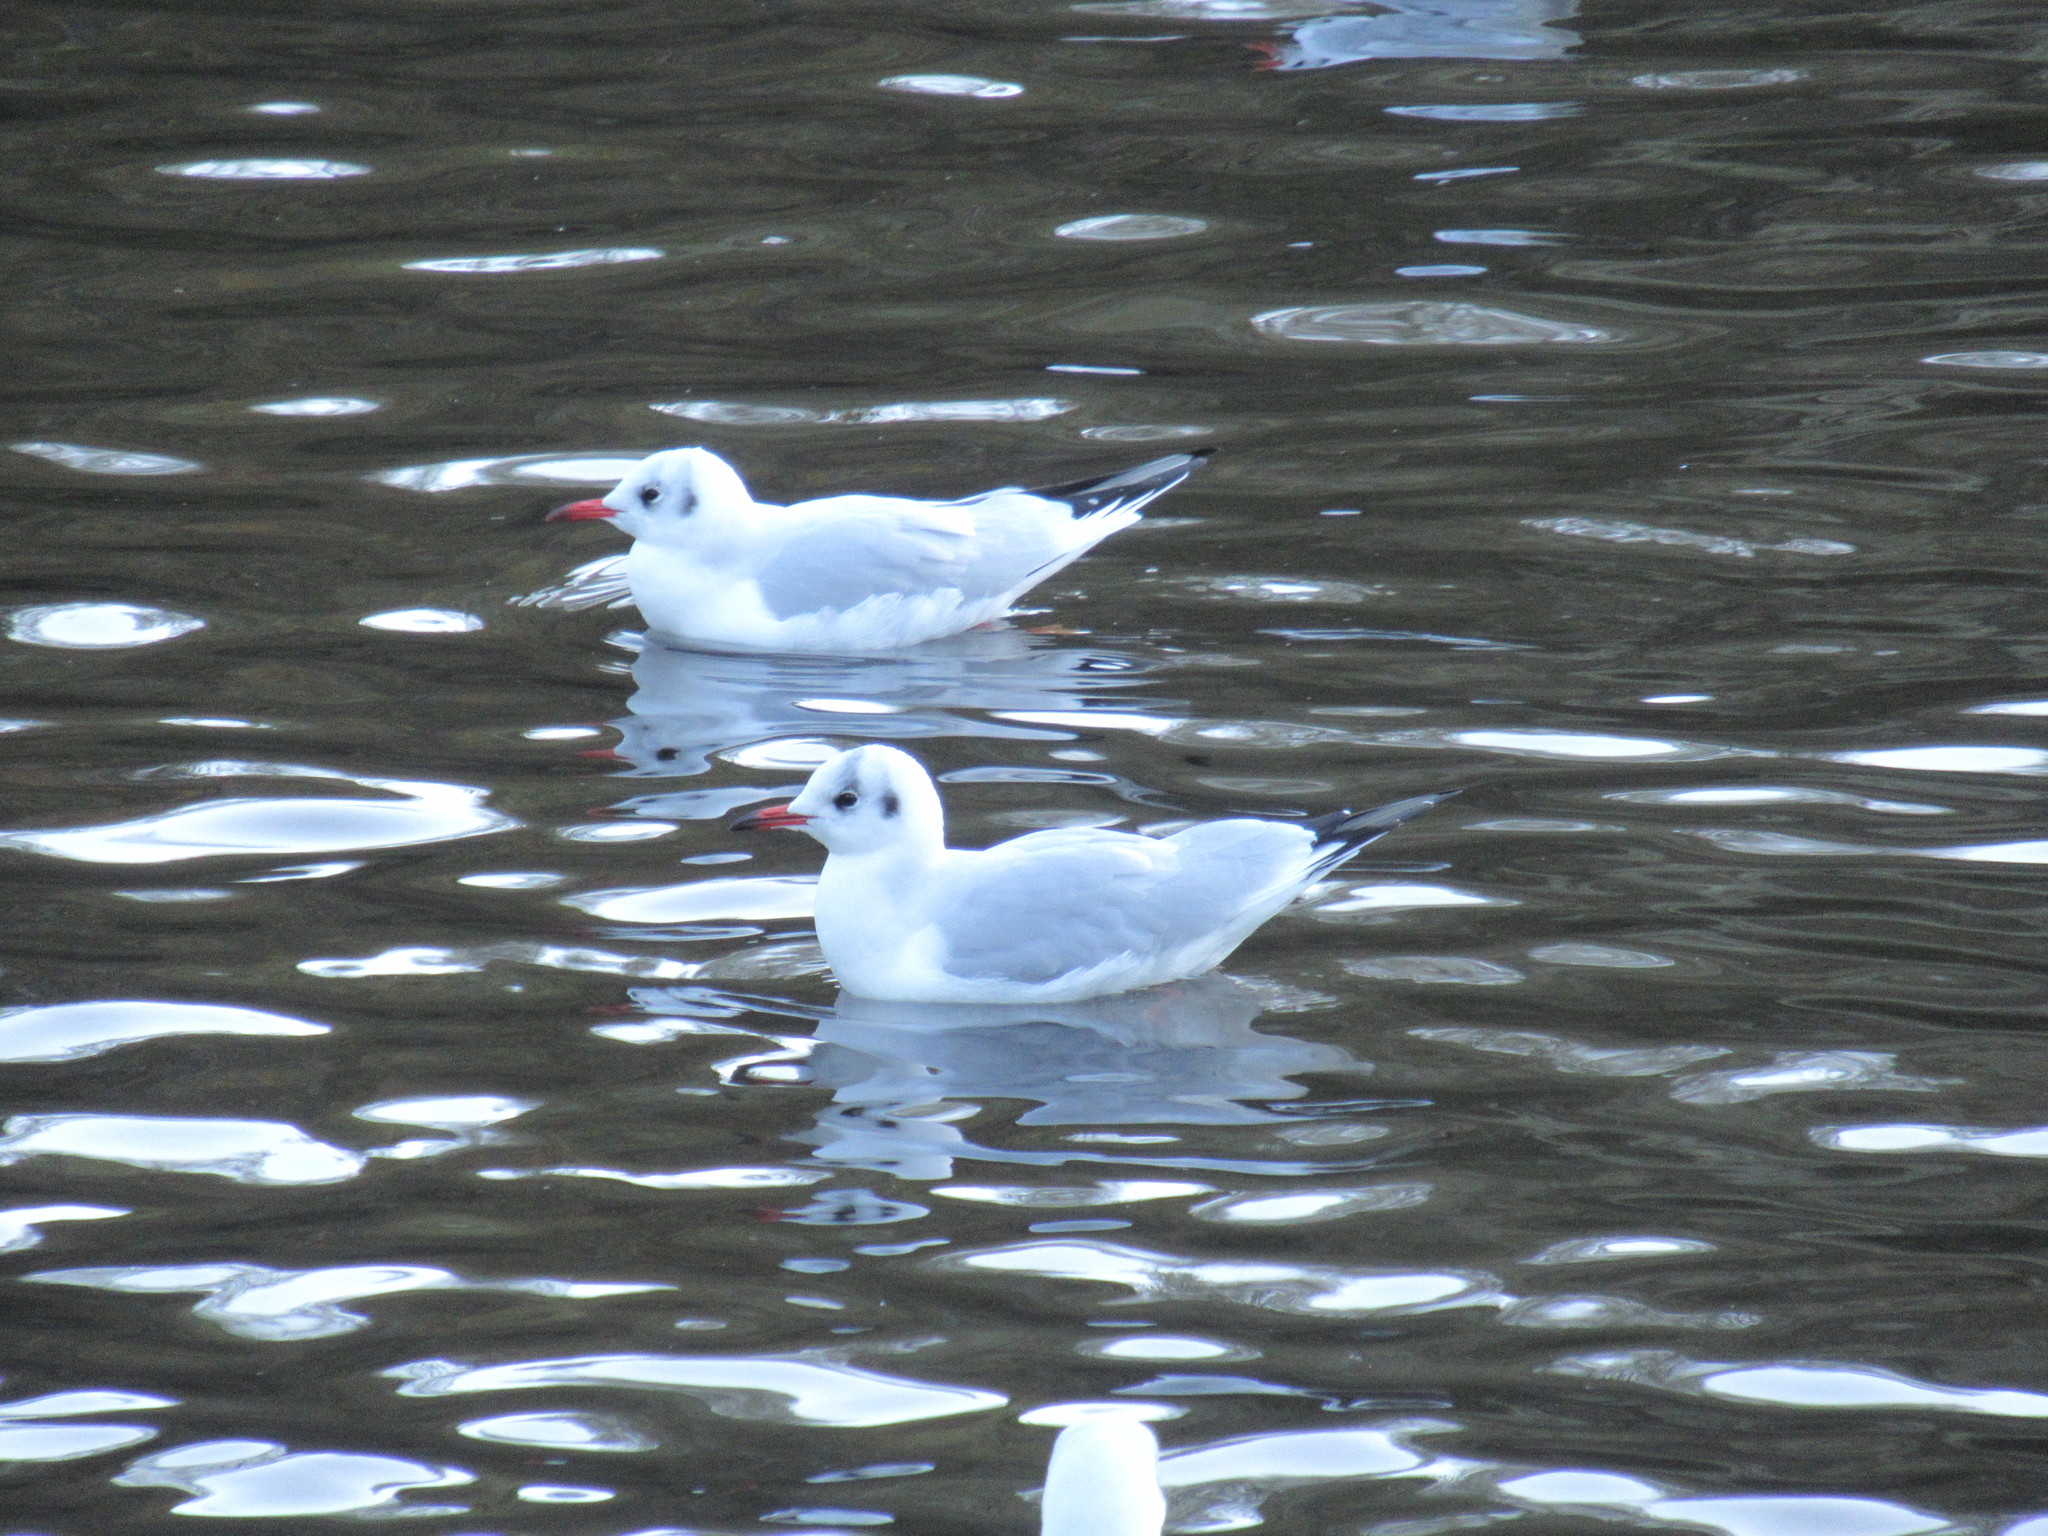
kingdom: Animalia
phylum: Chordata
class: Aves
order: Charadriiformes
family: Laridae
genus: Chroicocephalus
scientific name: Chroicocephalus ridibundus
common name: Black-headed gull
